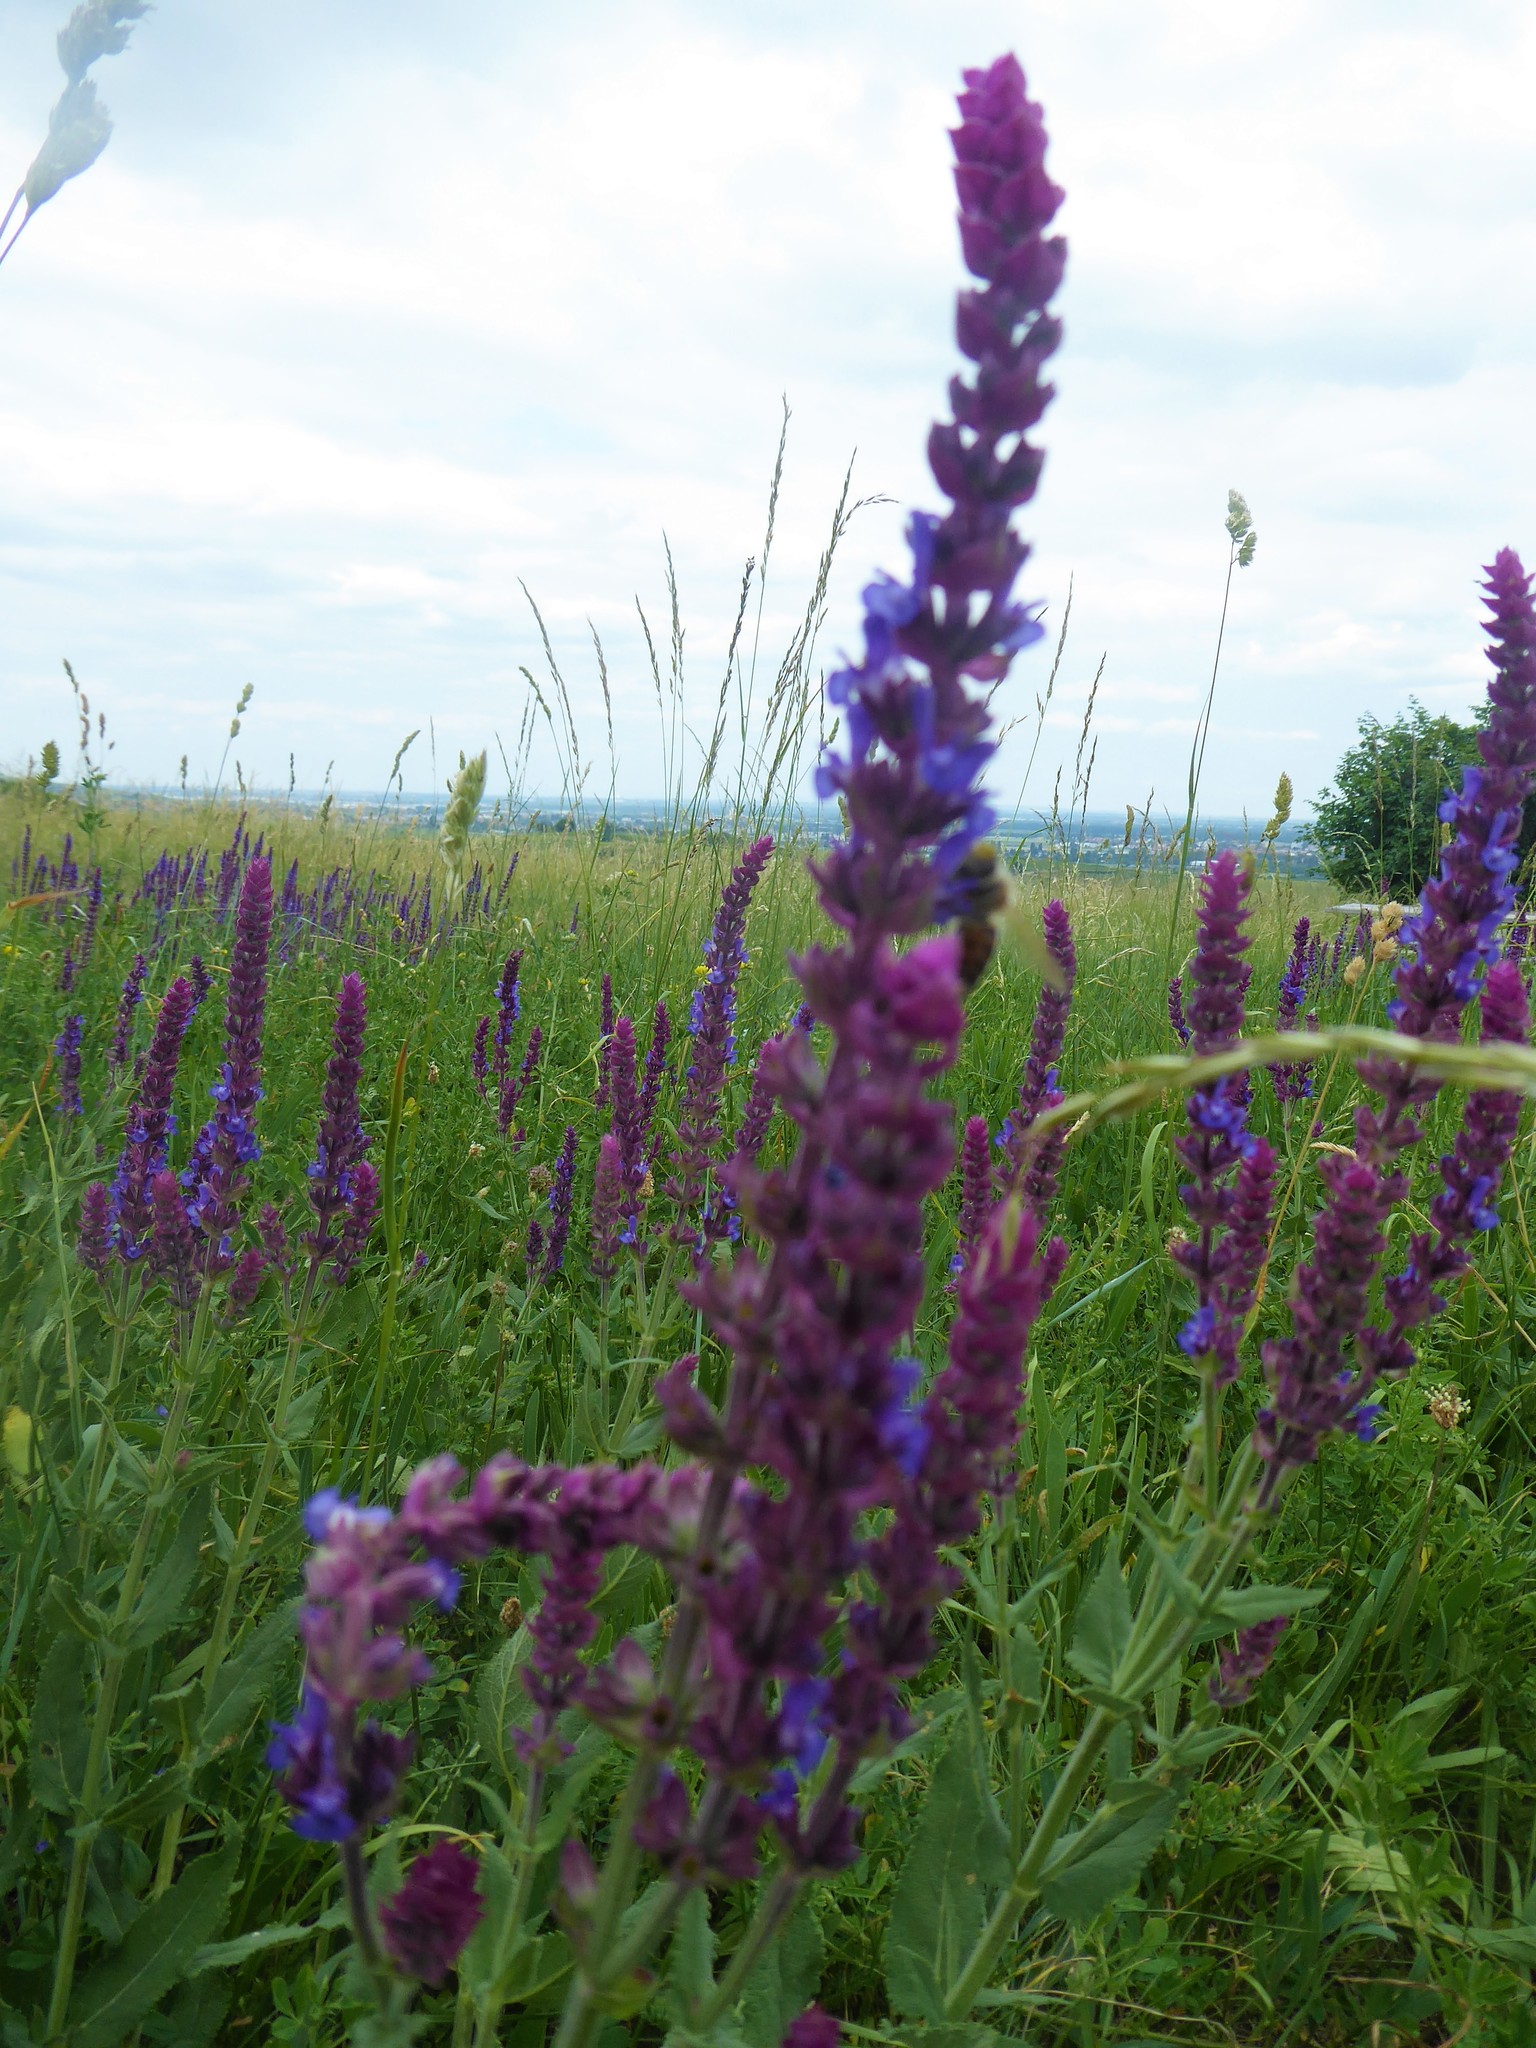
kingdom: Plantae
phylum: Tracheophyta
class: Magnoliopsida
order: Lamiales
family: Lamiaceae
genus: Salvia
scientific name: Salvia nemorosa
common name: Balkan clary
